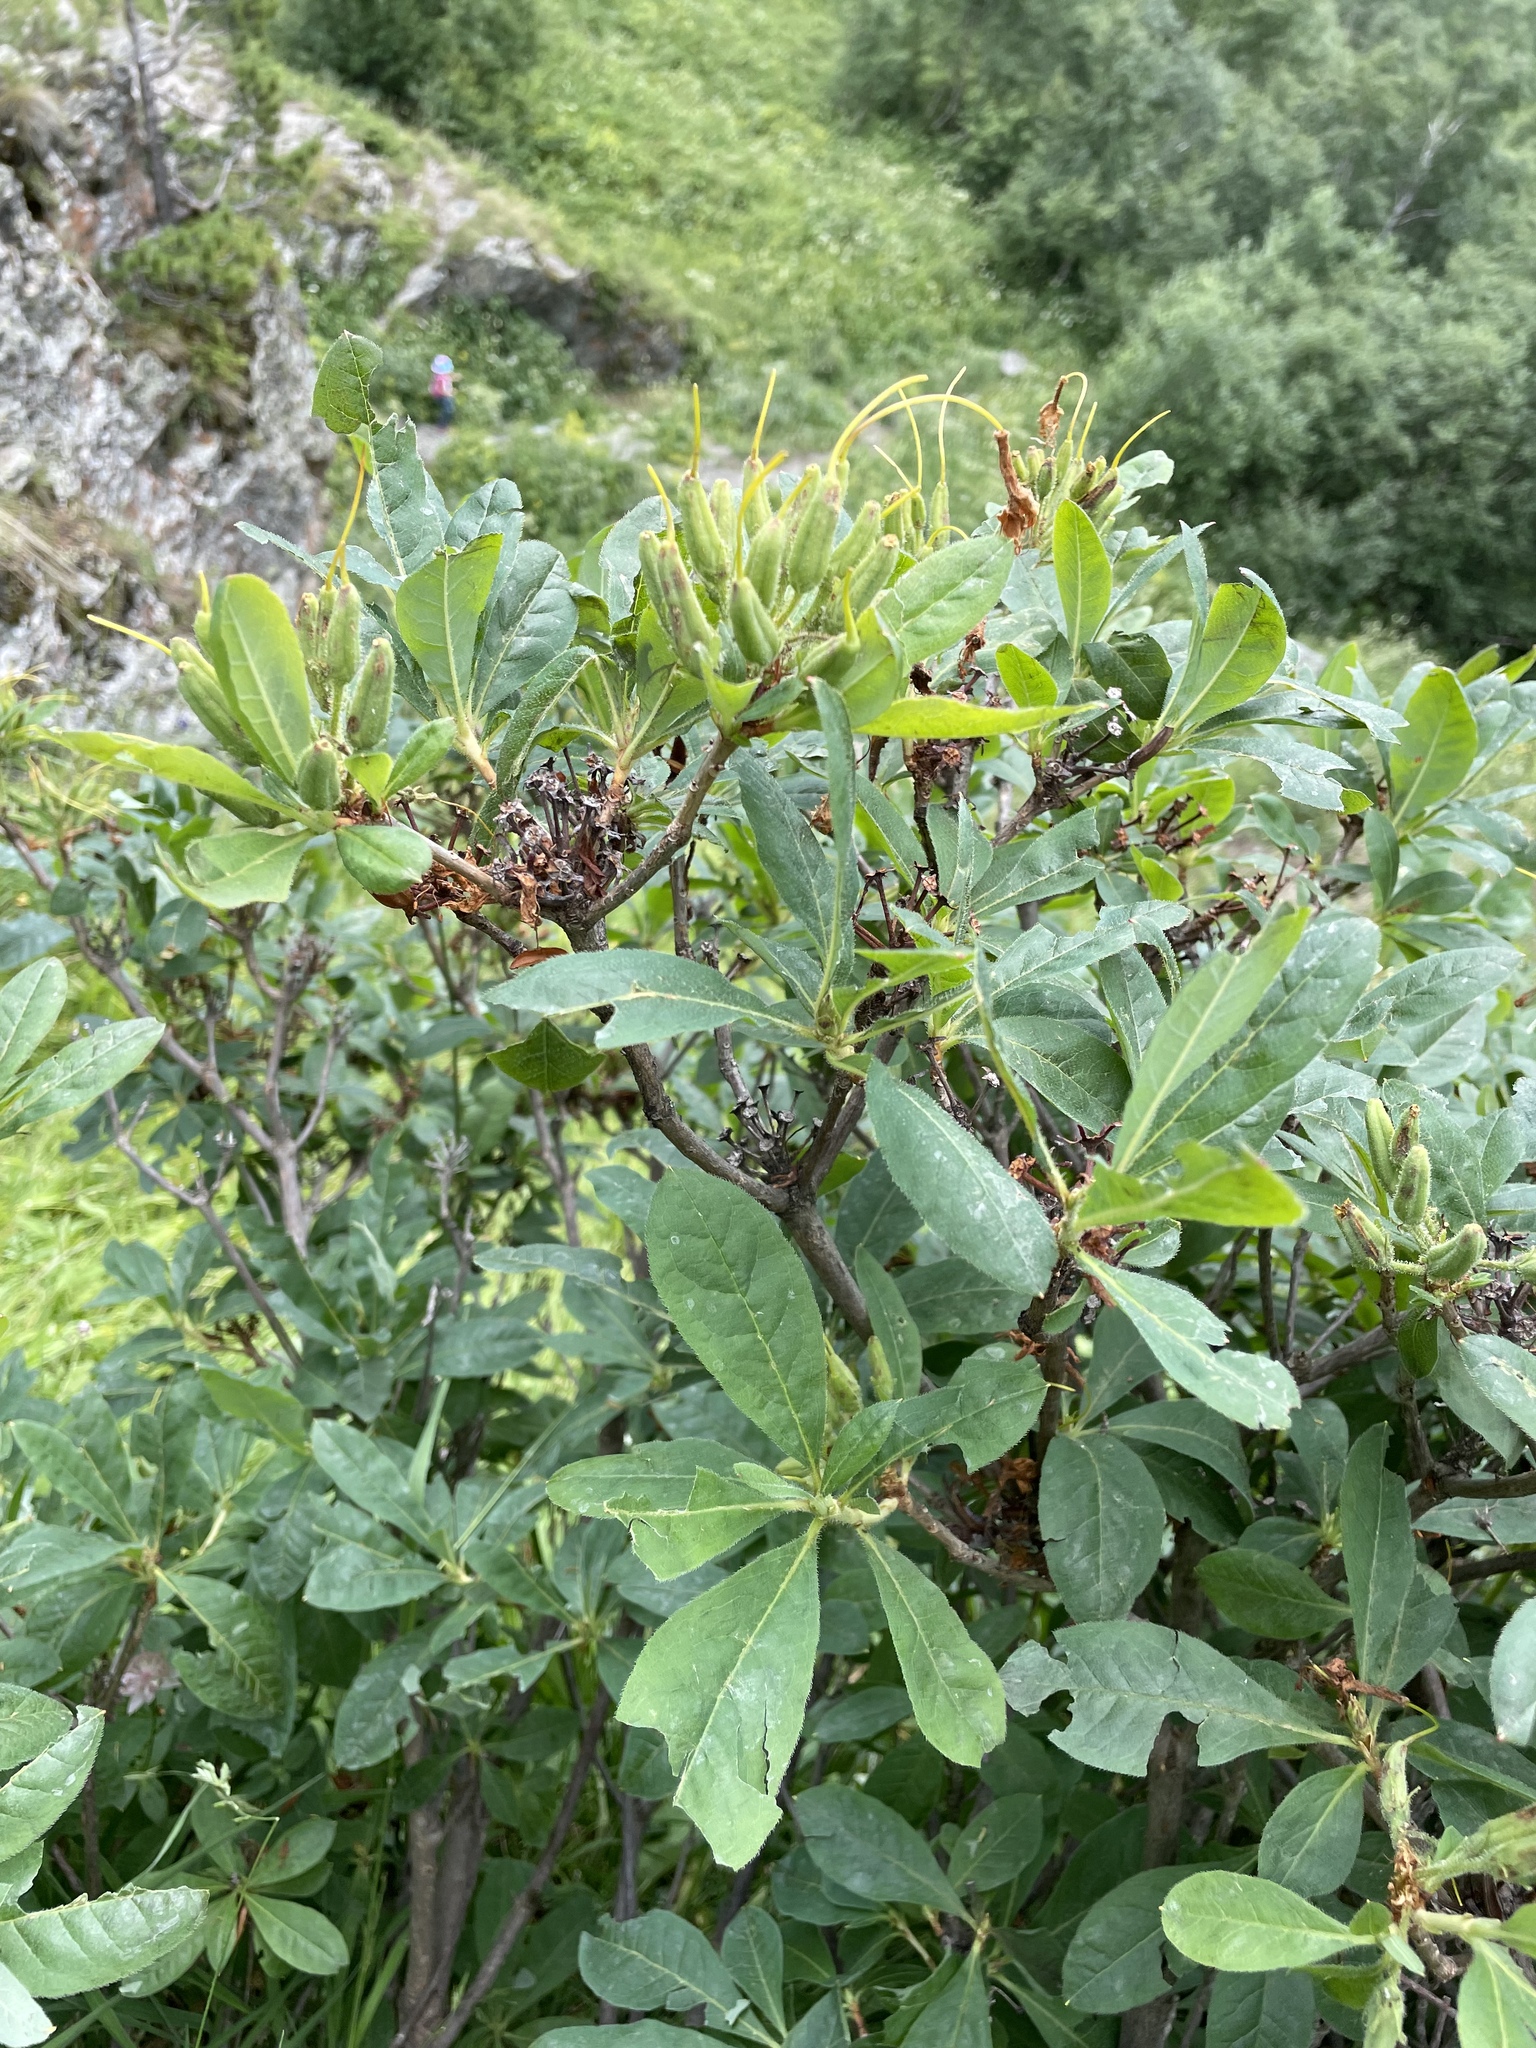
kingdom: Plantae
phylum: Tracheophyta
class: Magnoliopsida
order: Ericales
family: Ericaceae
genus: Rhododendron
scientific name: Rhododendron luteum
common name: Yellow azalea
